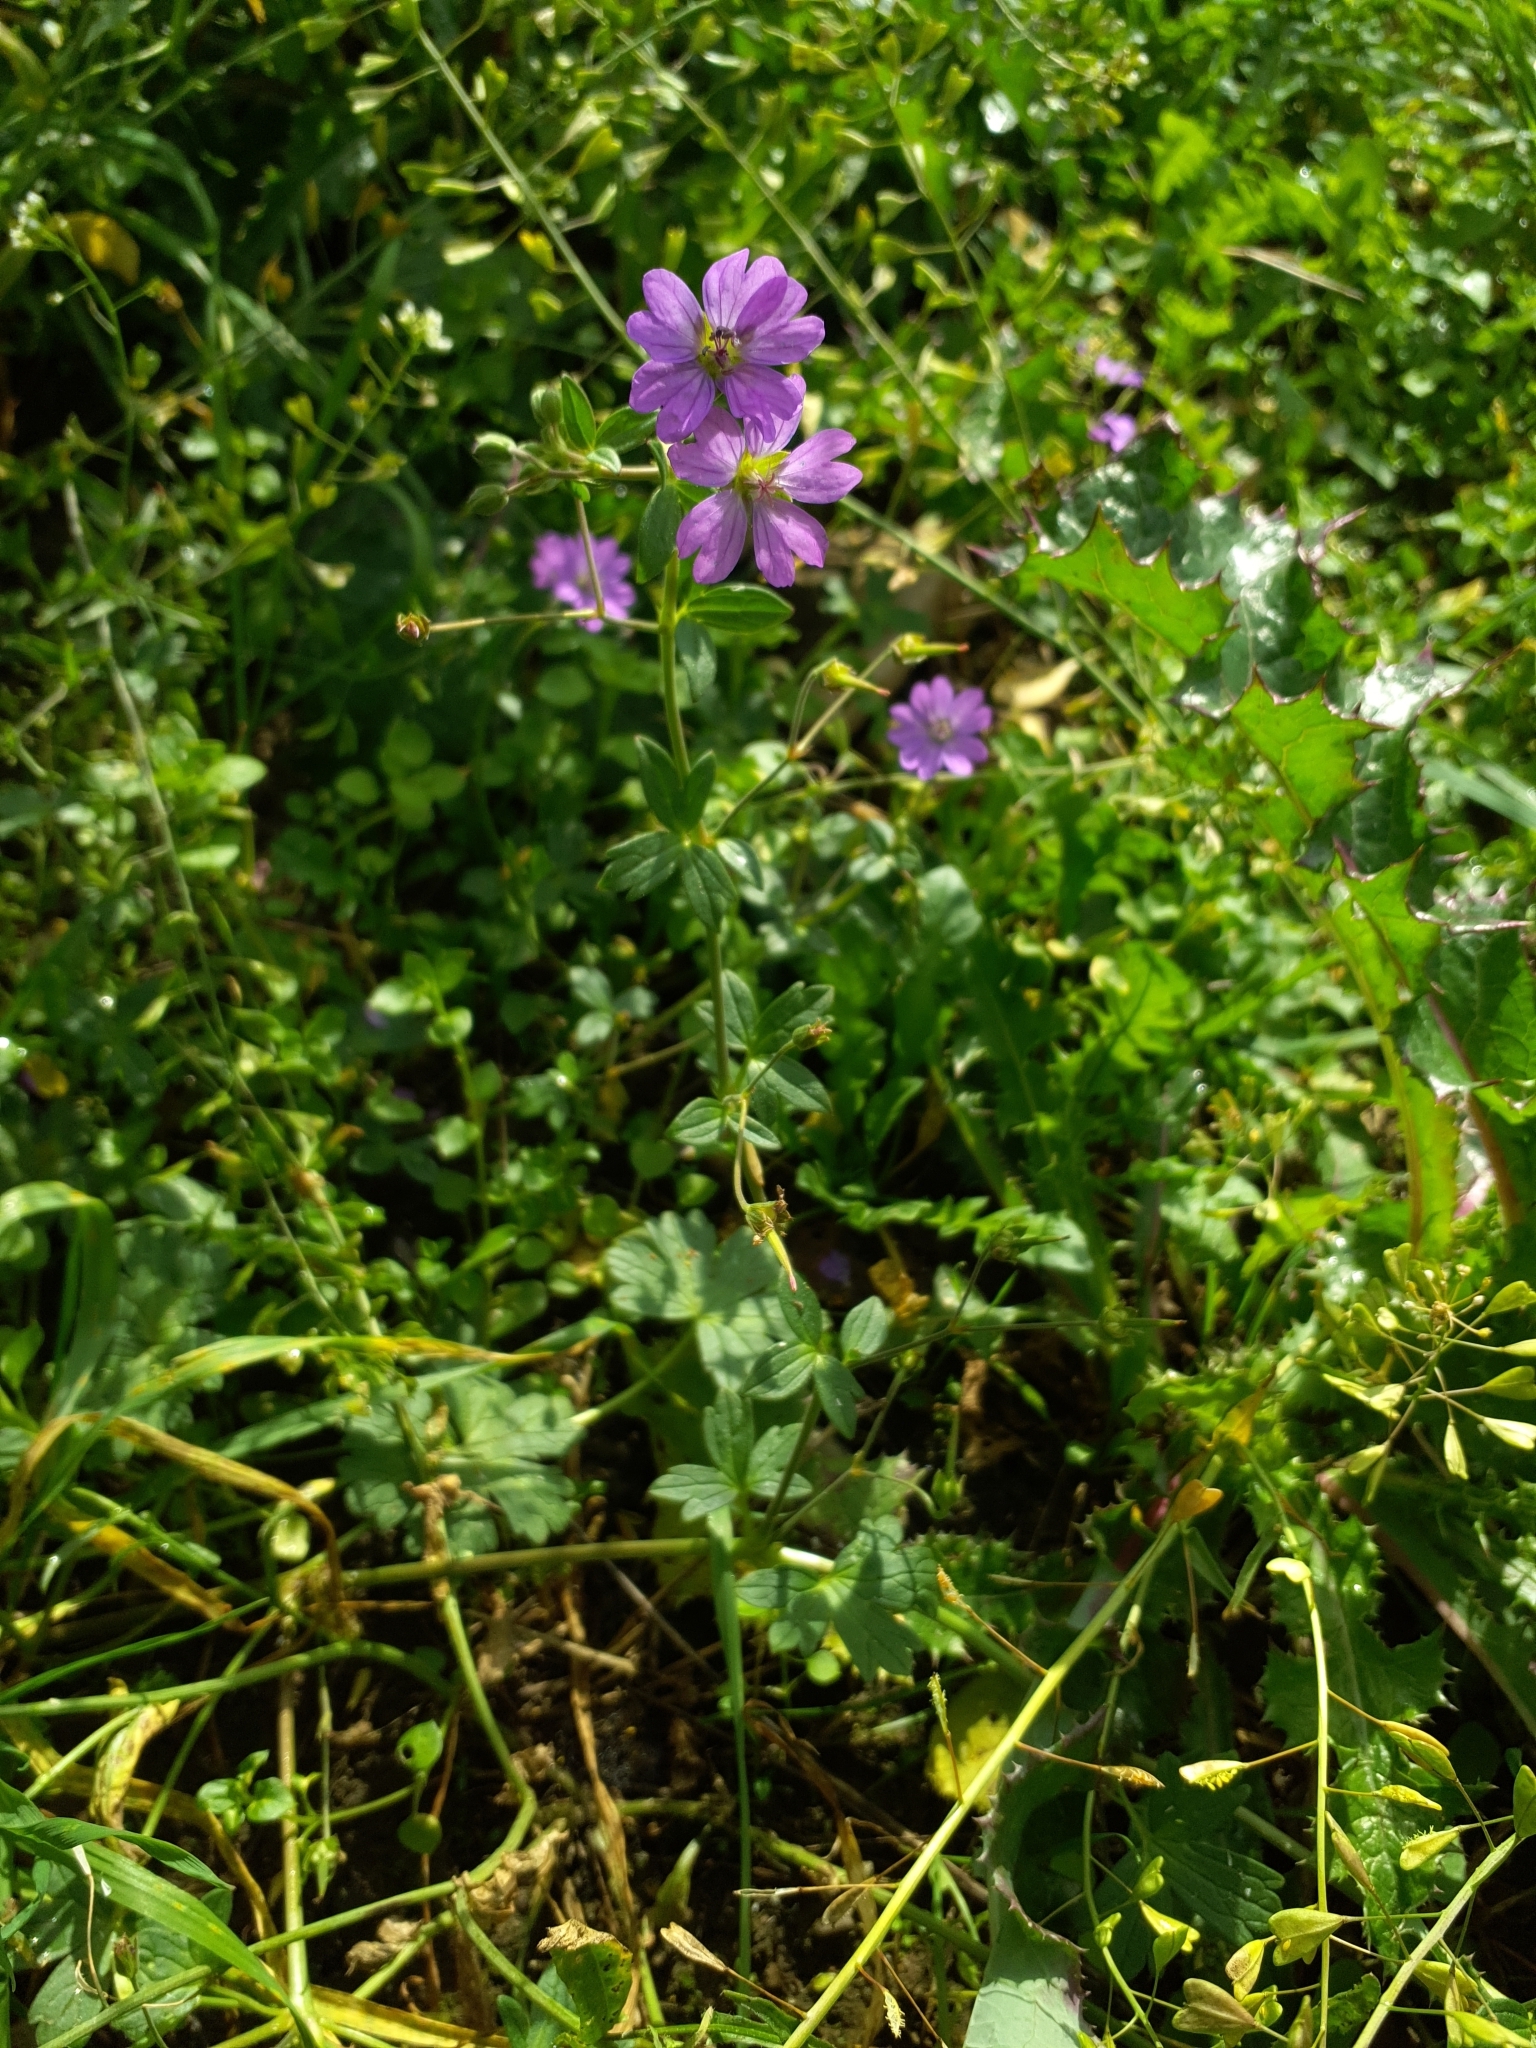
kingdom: Plantae
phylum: Tracheophyta
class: Magnoliopsida
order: Geraniales
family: Geraniaceae
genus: Geranium
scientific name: Geranium pyrenaicum
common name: Hedgerow crane's-bill
